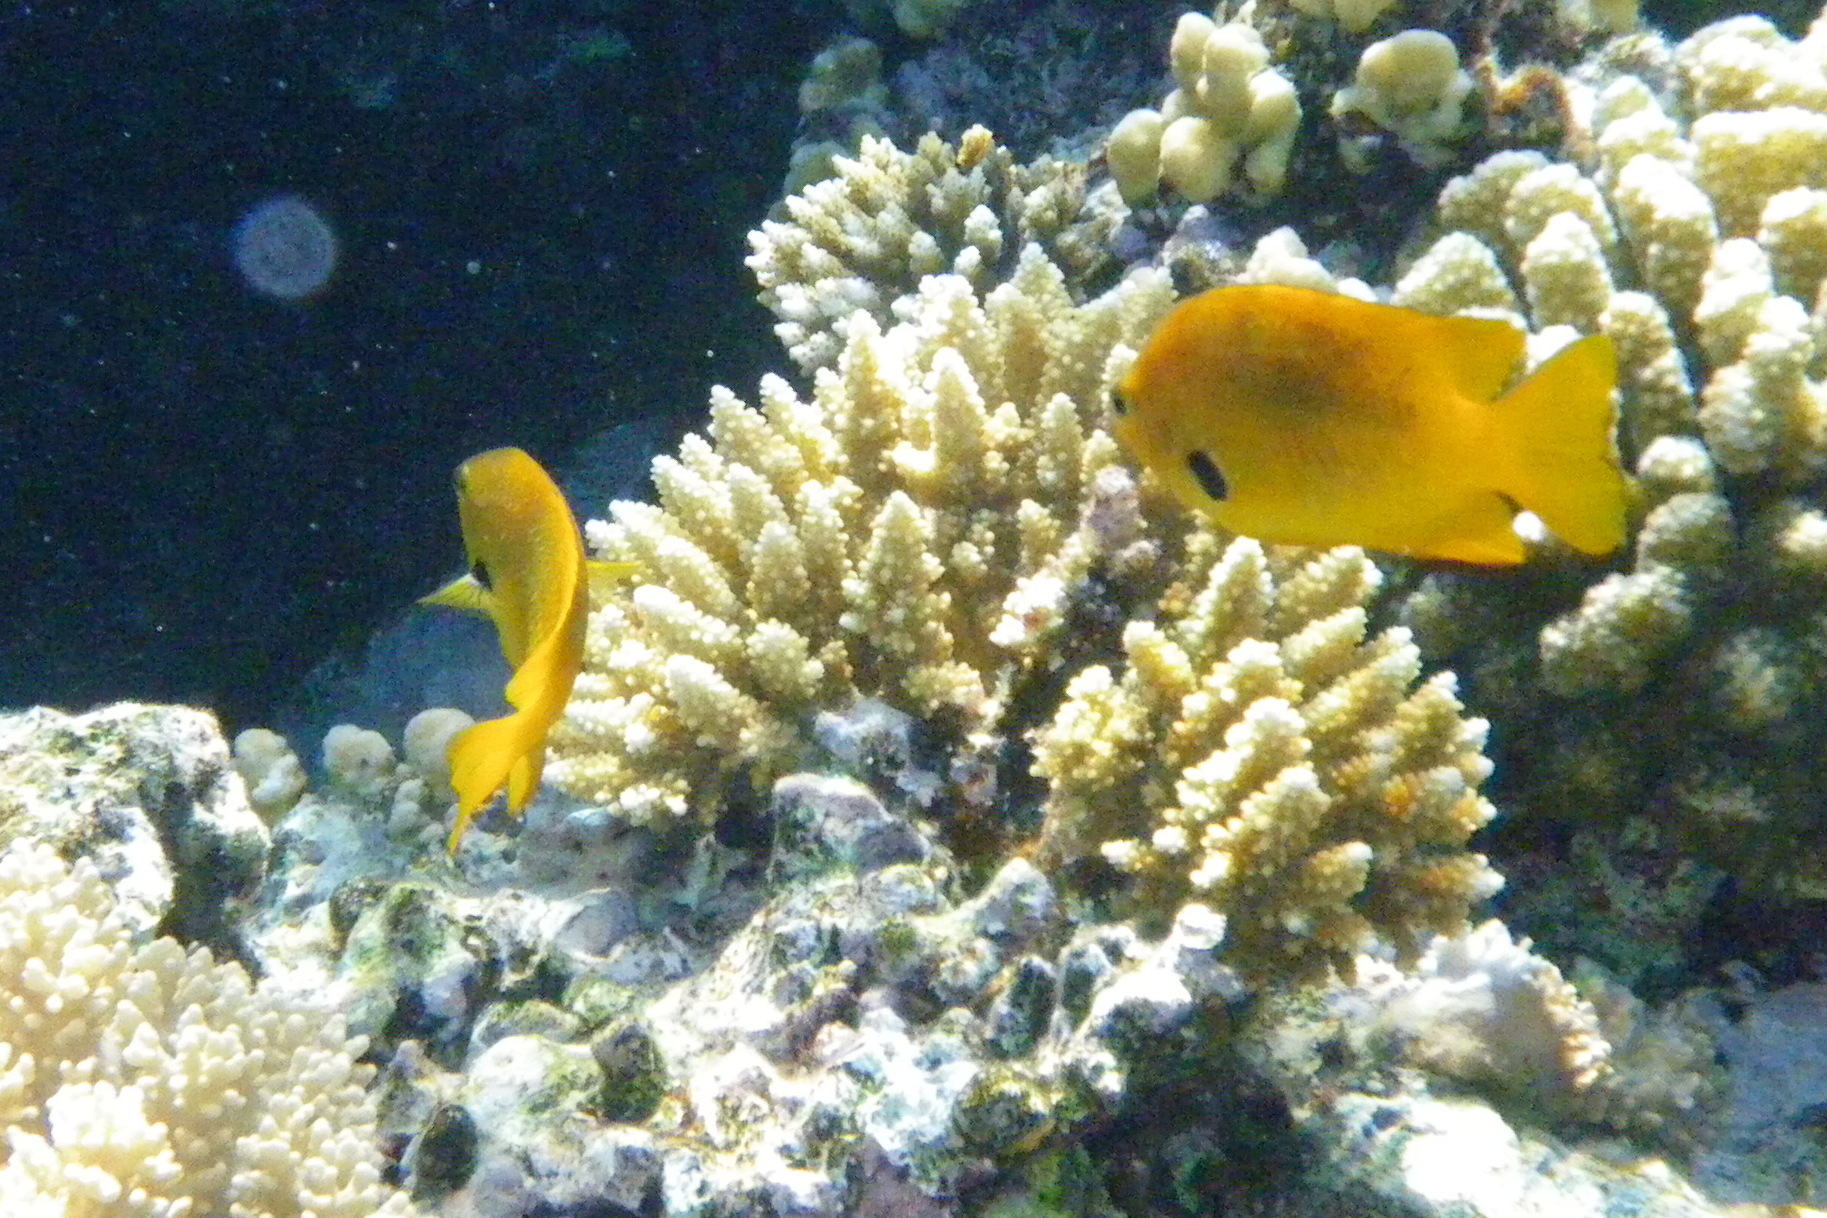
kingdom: Animalia
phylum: Chordata
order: Perciformes
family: Pomacentridae
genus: Pomacentrus
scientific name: Pomacentrus sulfureus
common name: Sulfur damsel
